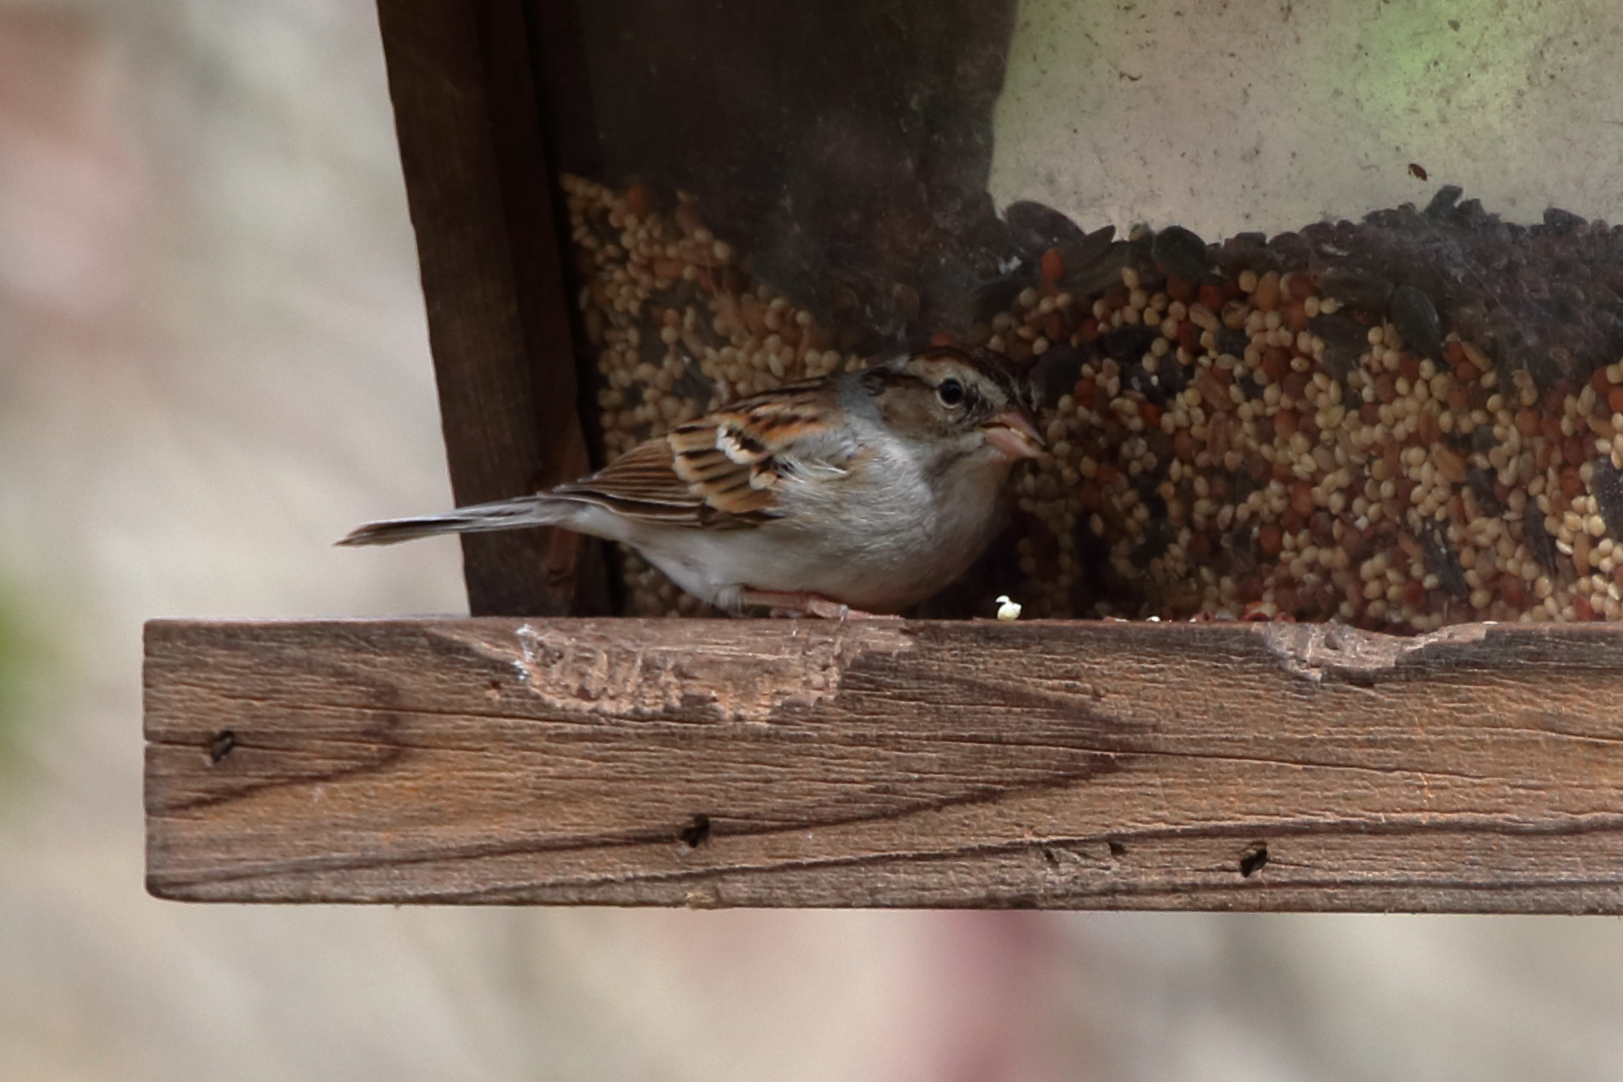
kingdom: Animalia
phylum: Chordata
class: Aves
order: Passeriformes
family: Passerellidae
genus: Spizella
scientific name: Spizella passerina
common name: Chipping sparrow
